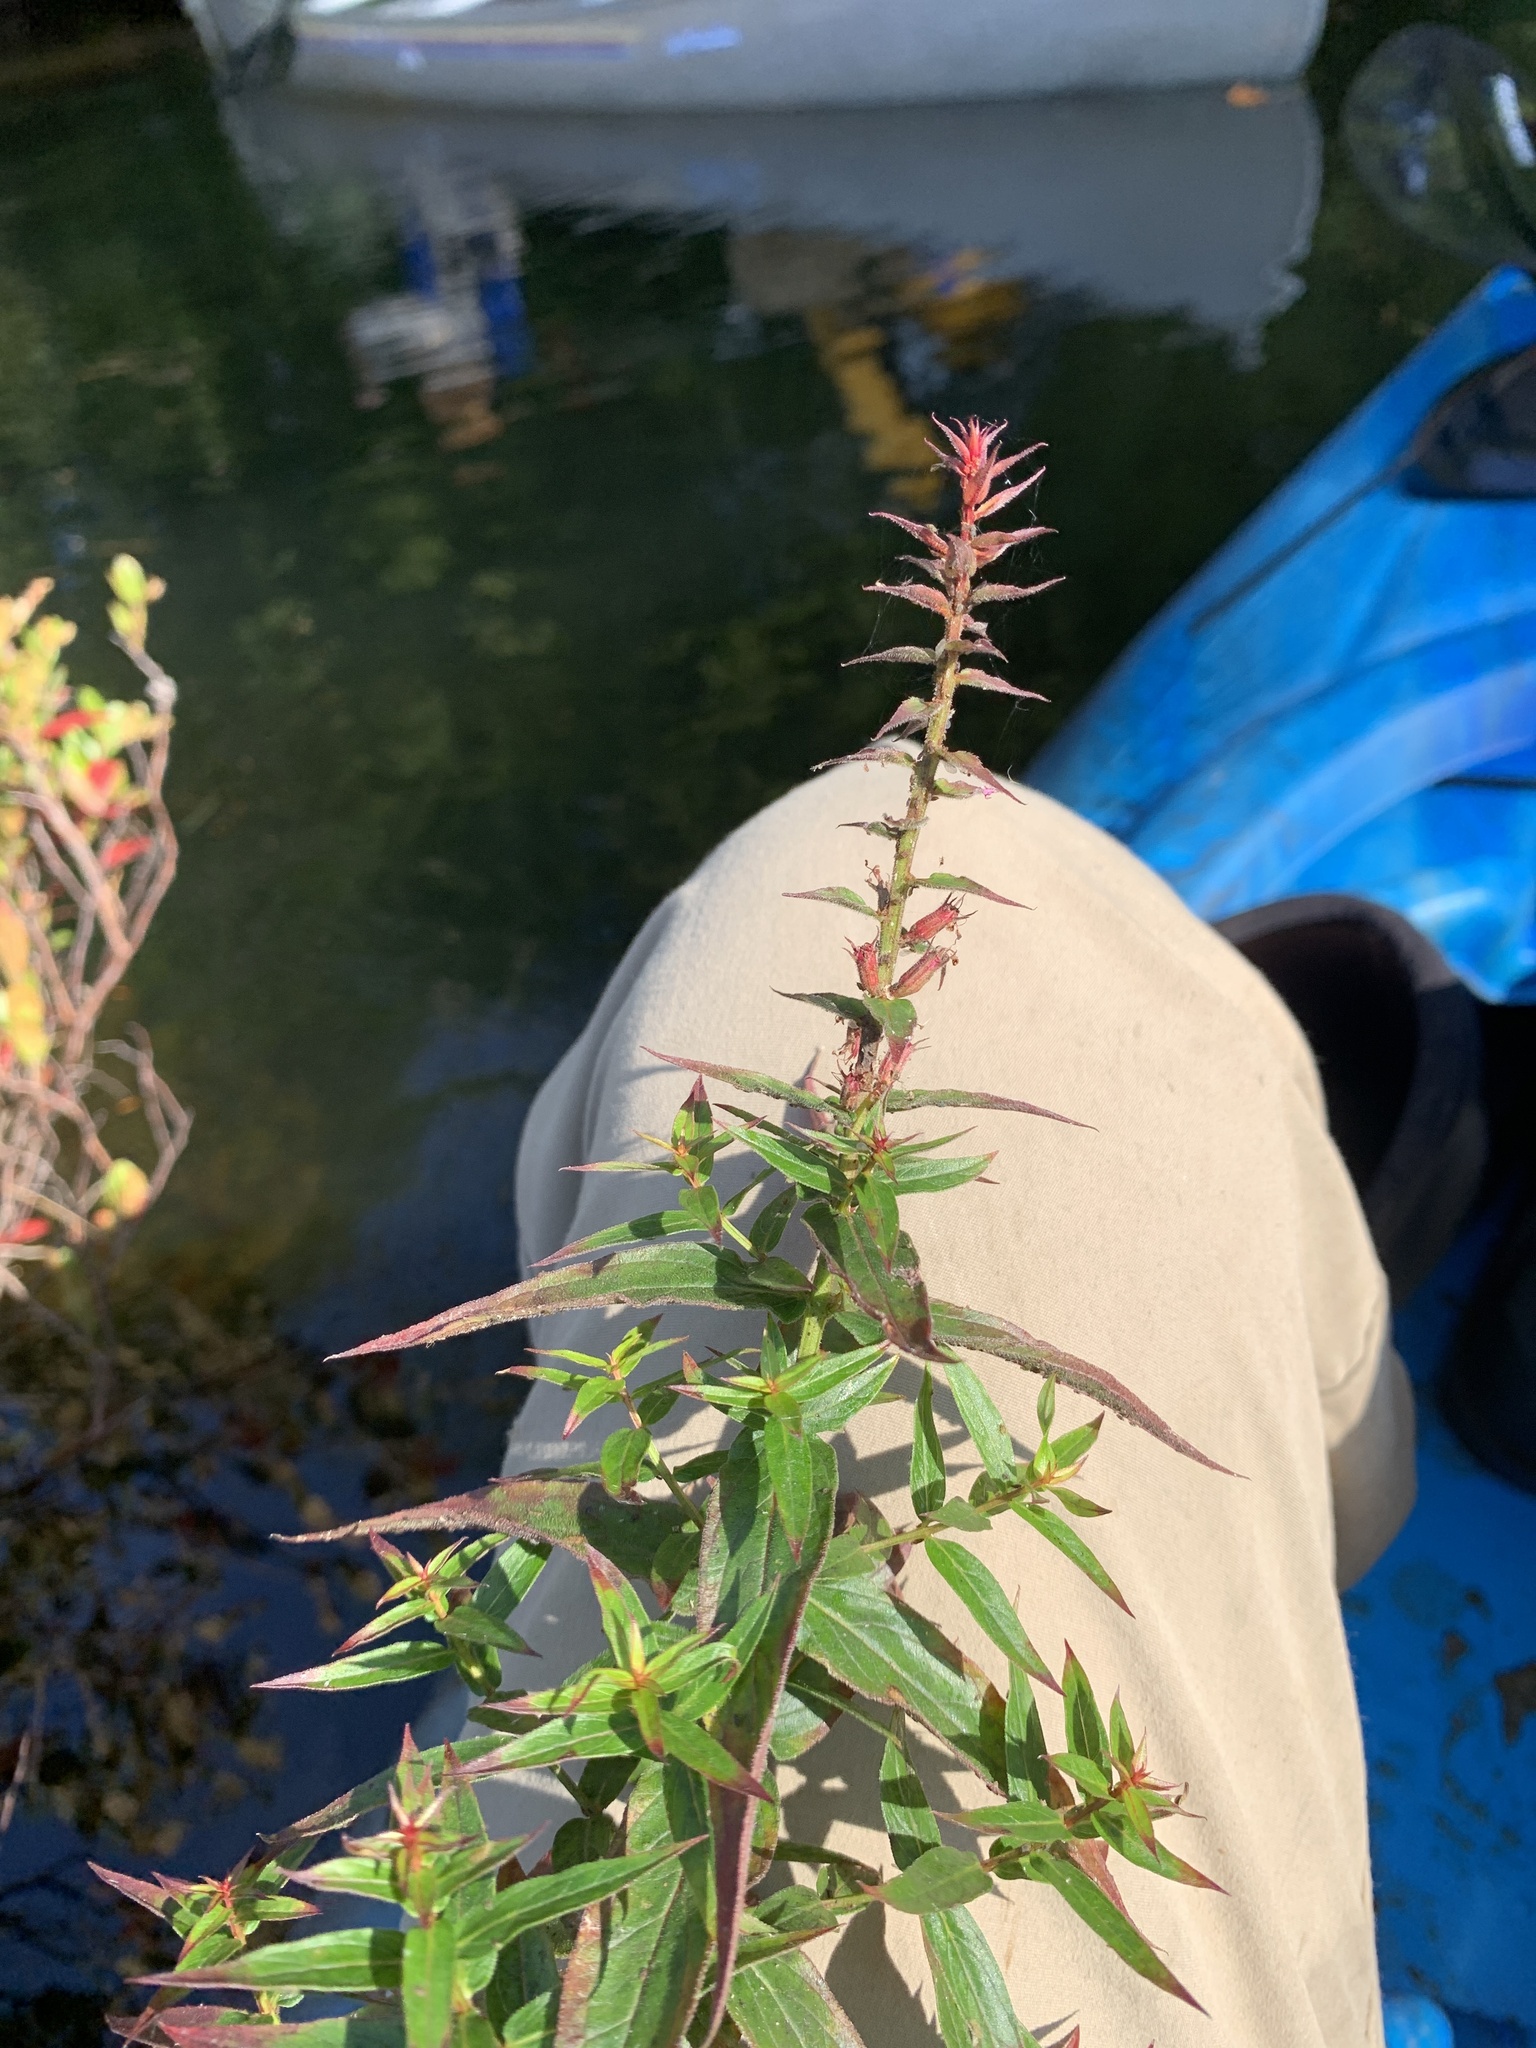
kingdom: Plantae
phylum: Tracheophyta
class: Magnoliopsida
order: Myrtales
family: Lythraceae
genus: Lythrum
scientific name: Lythrum salicaria
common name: Purple loosestrife
